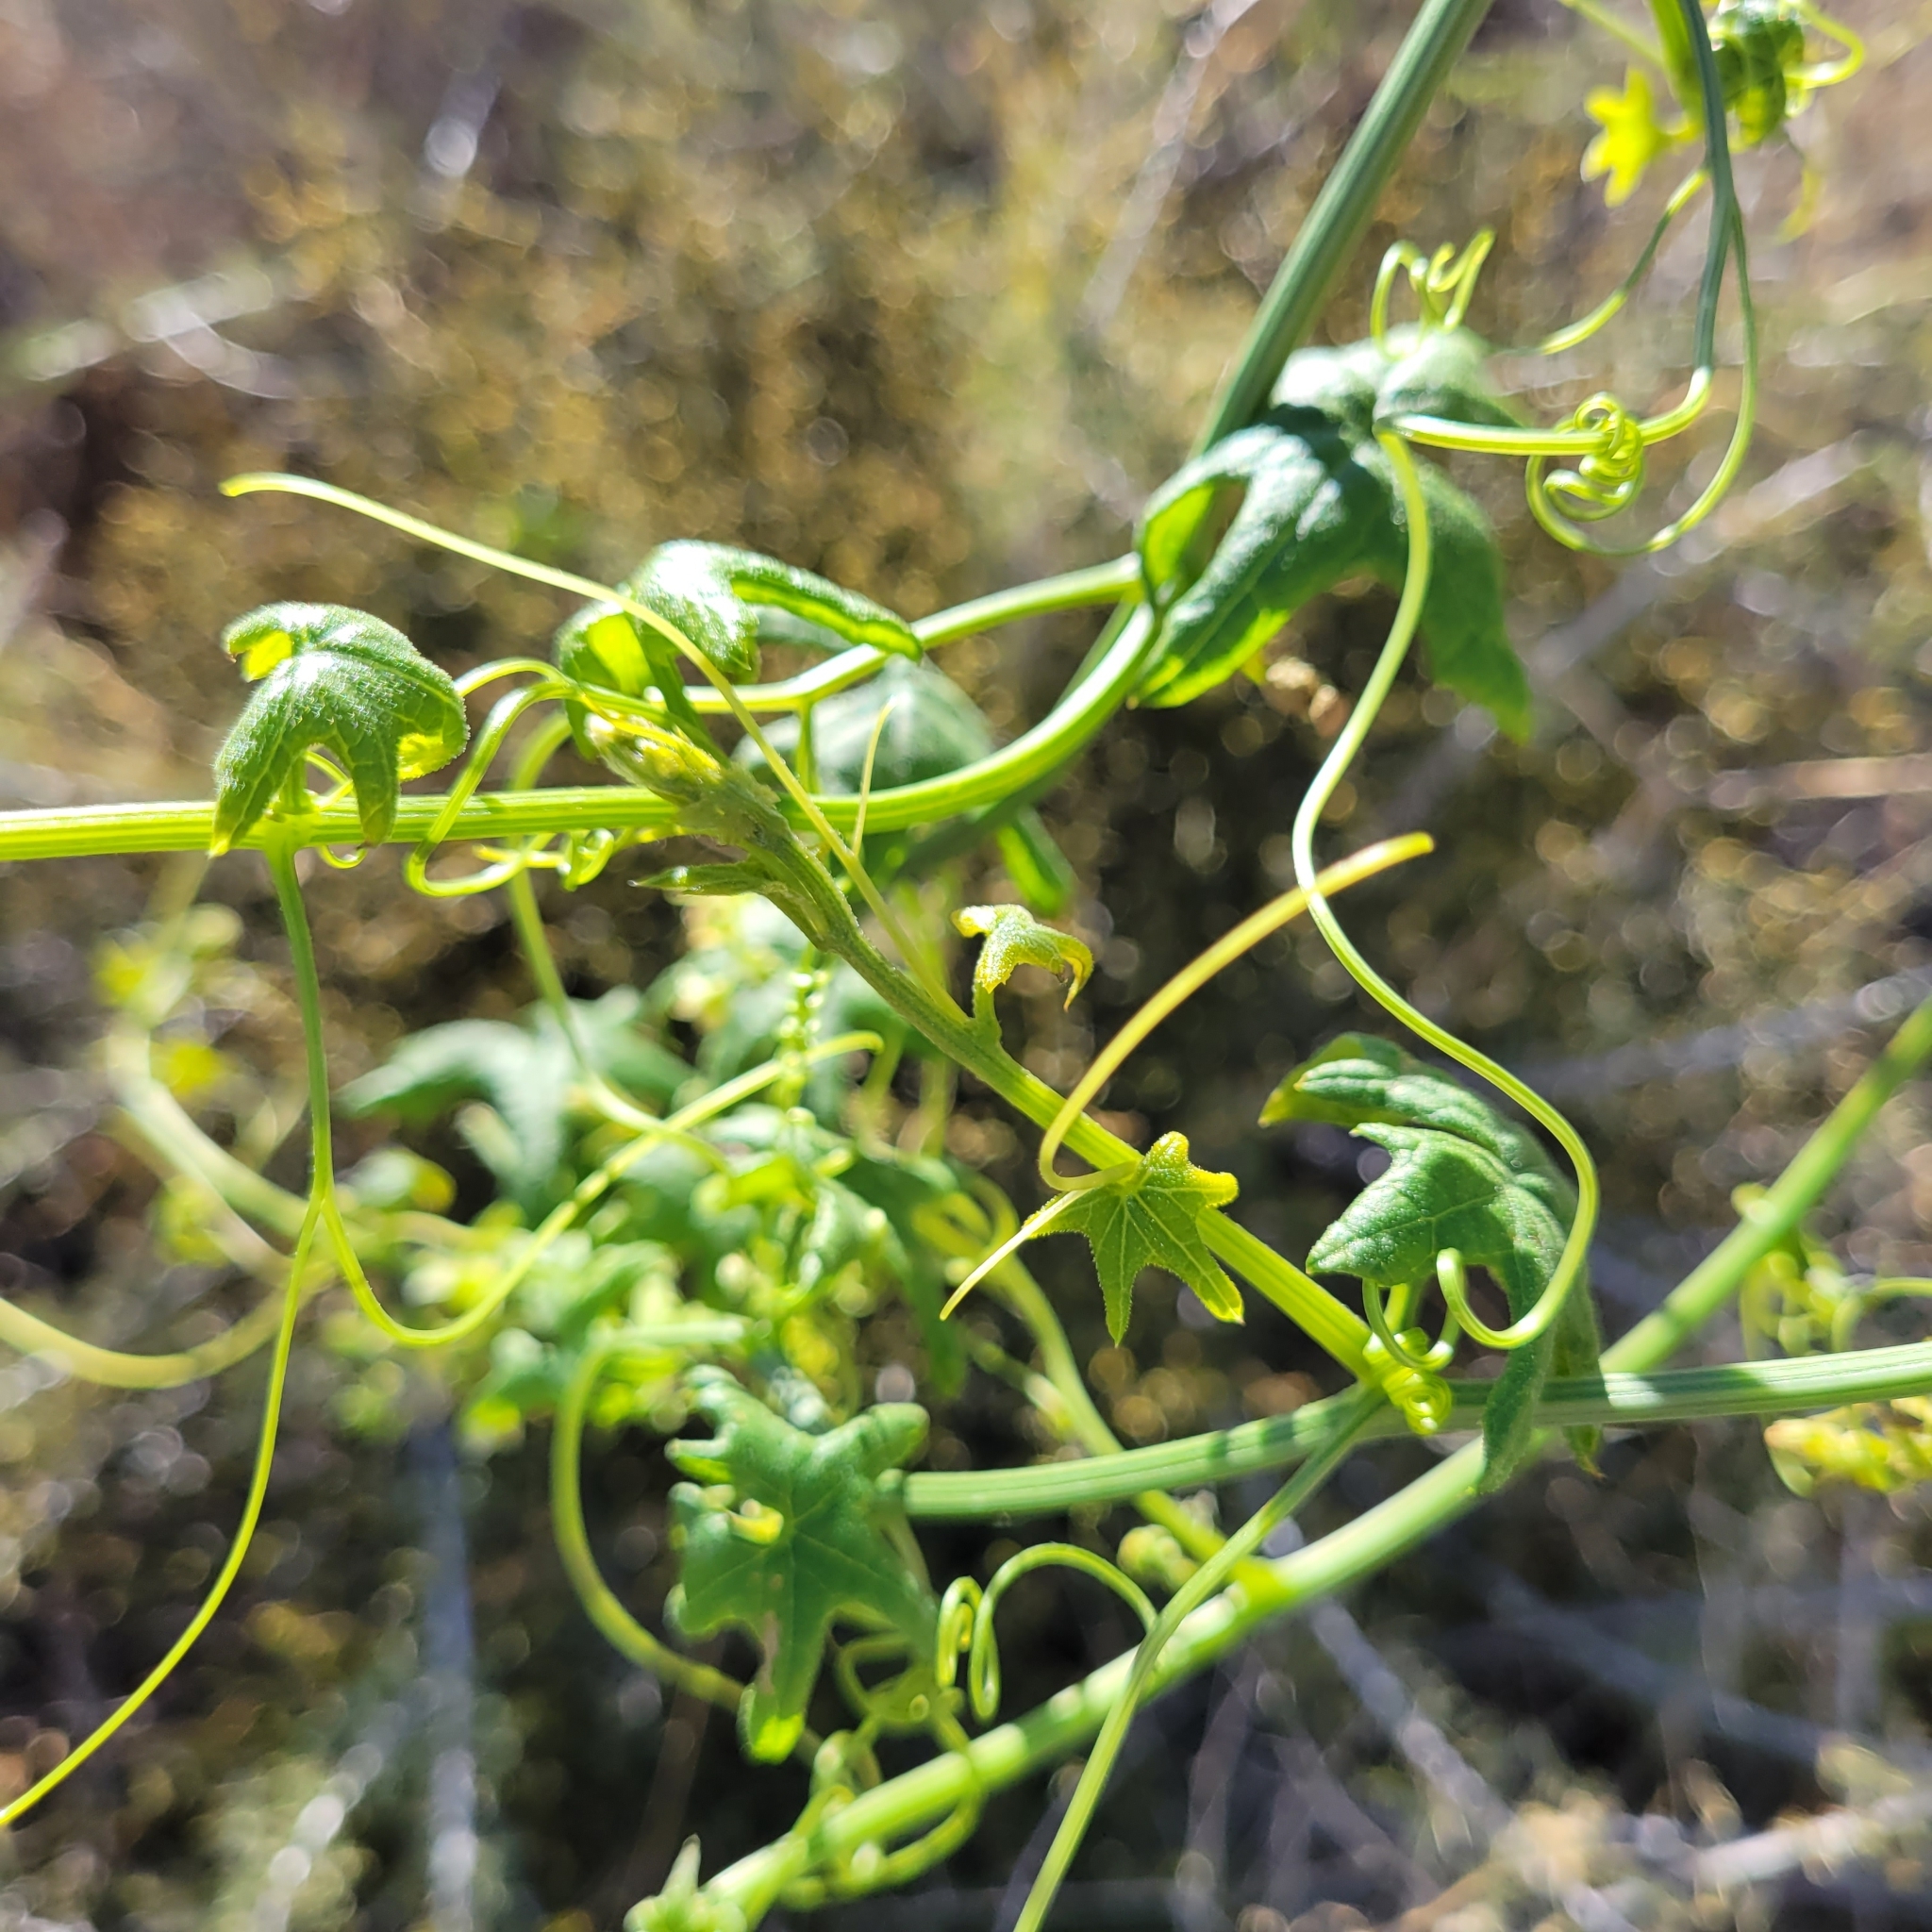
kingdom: Plantae
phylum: Tracheophyta
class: Magnoliopsida
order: Cucurbitales
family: Cucurbitaceae
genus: Marah
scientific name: Marah macrocarpa
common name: Cucamonga manroot
